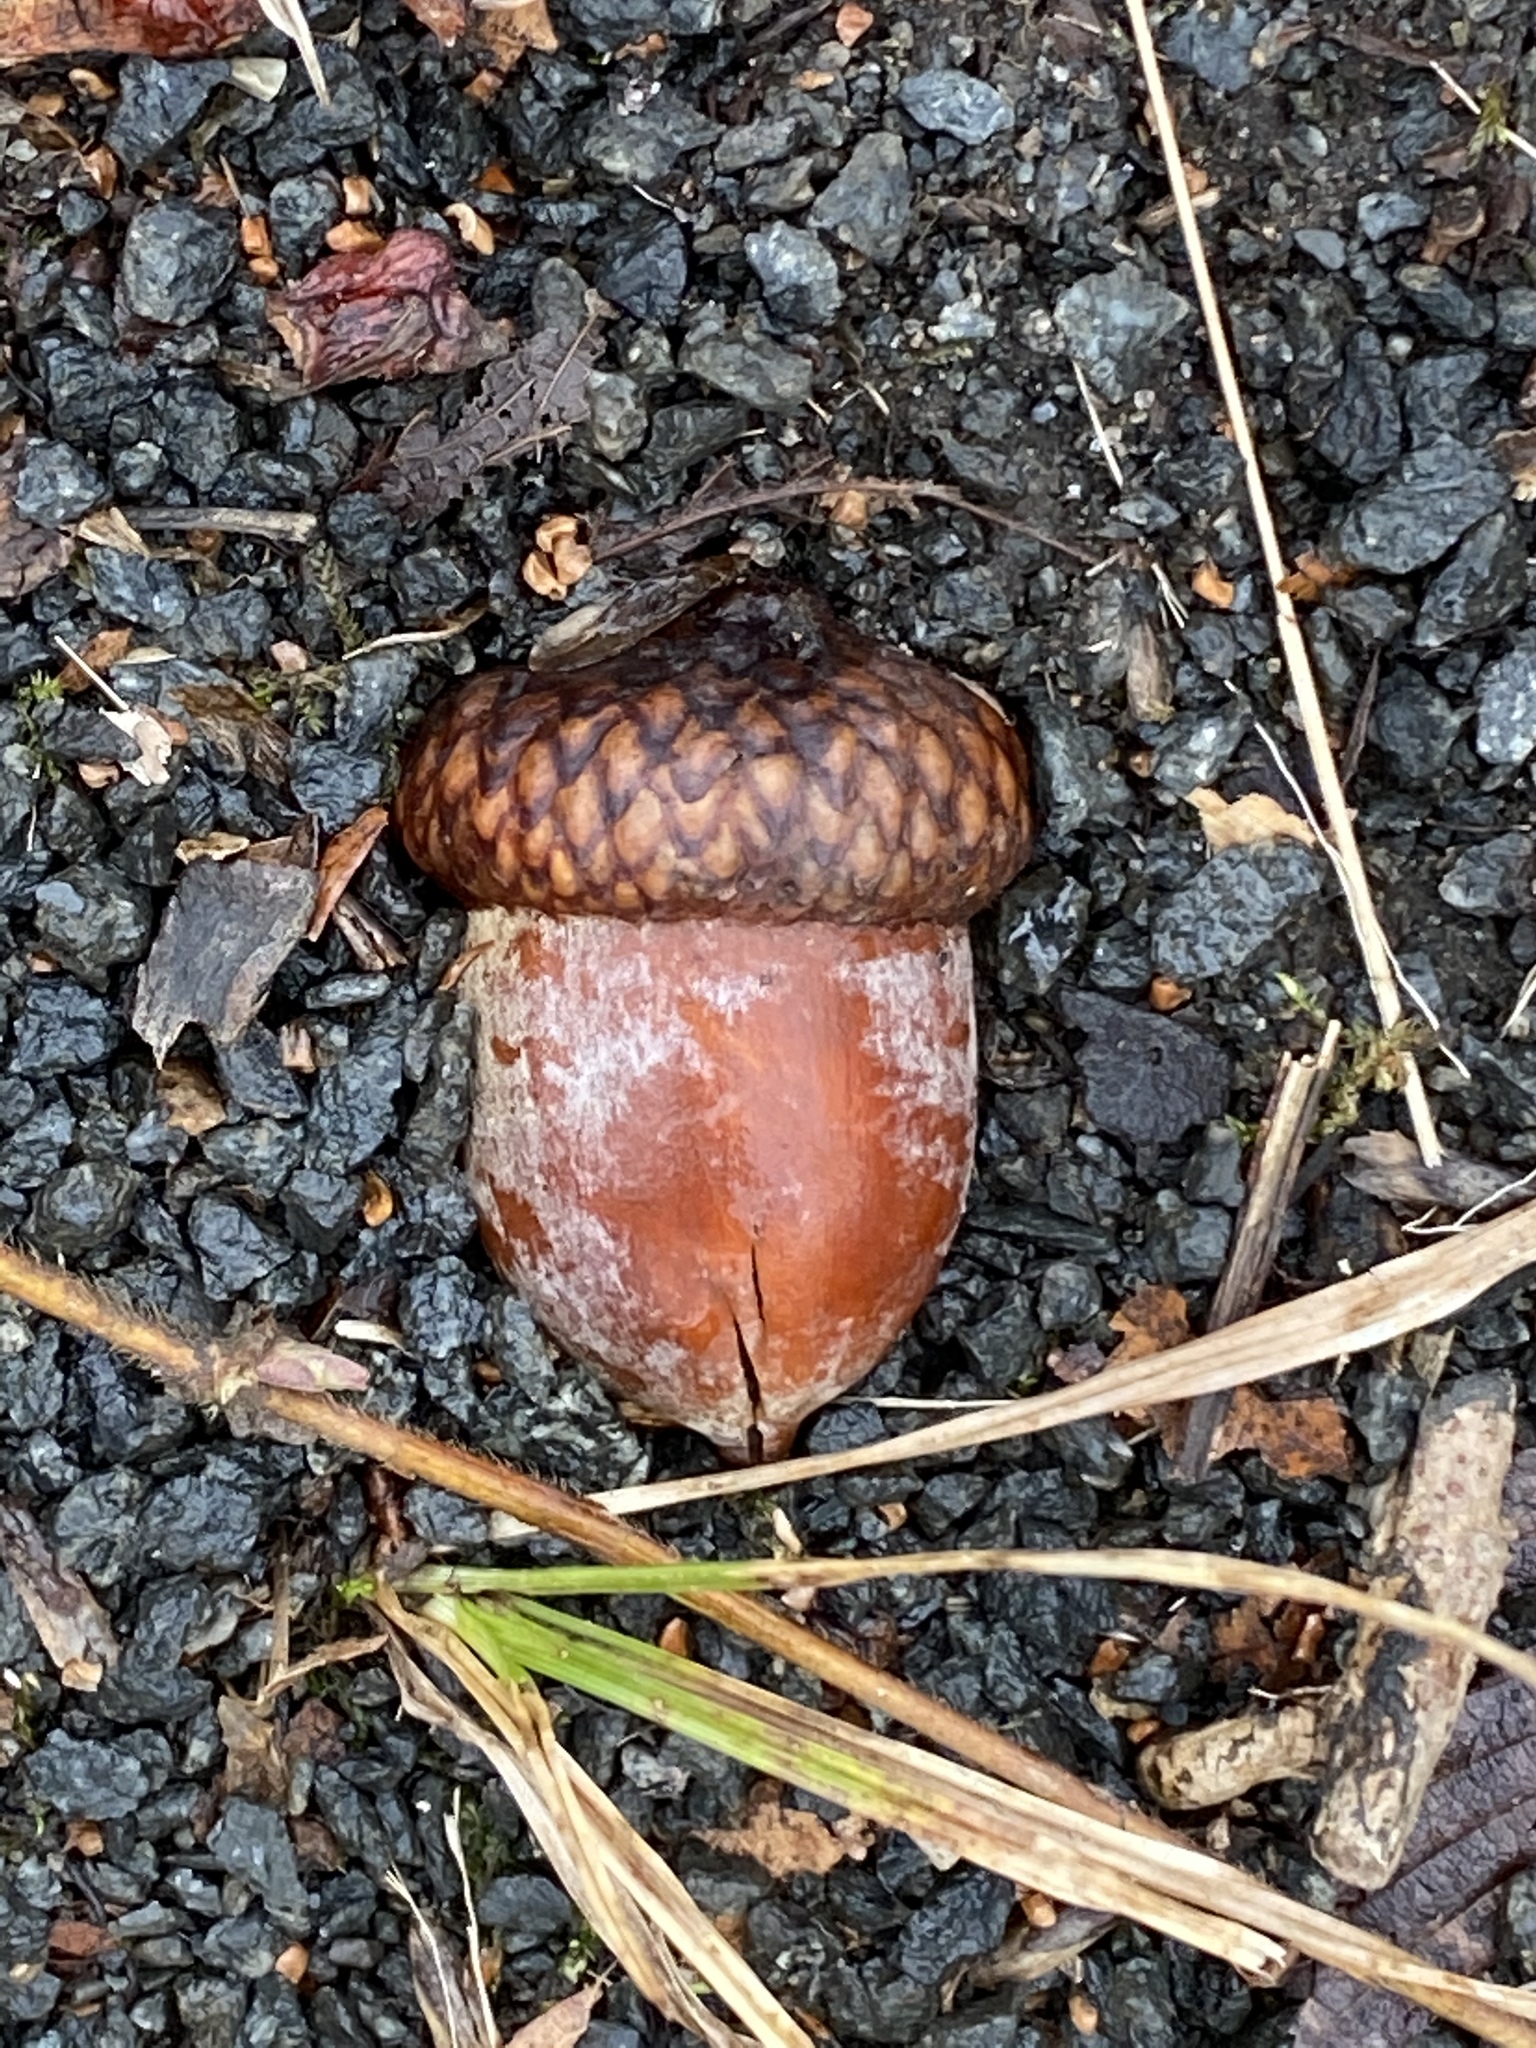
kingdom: Plantae
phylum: Tracheophyta
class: Magnoliopsida
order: Fagales
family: Fagaceae
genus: Quercus
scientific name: Quercus rubra
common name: Red oak
